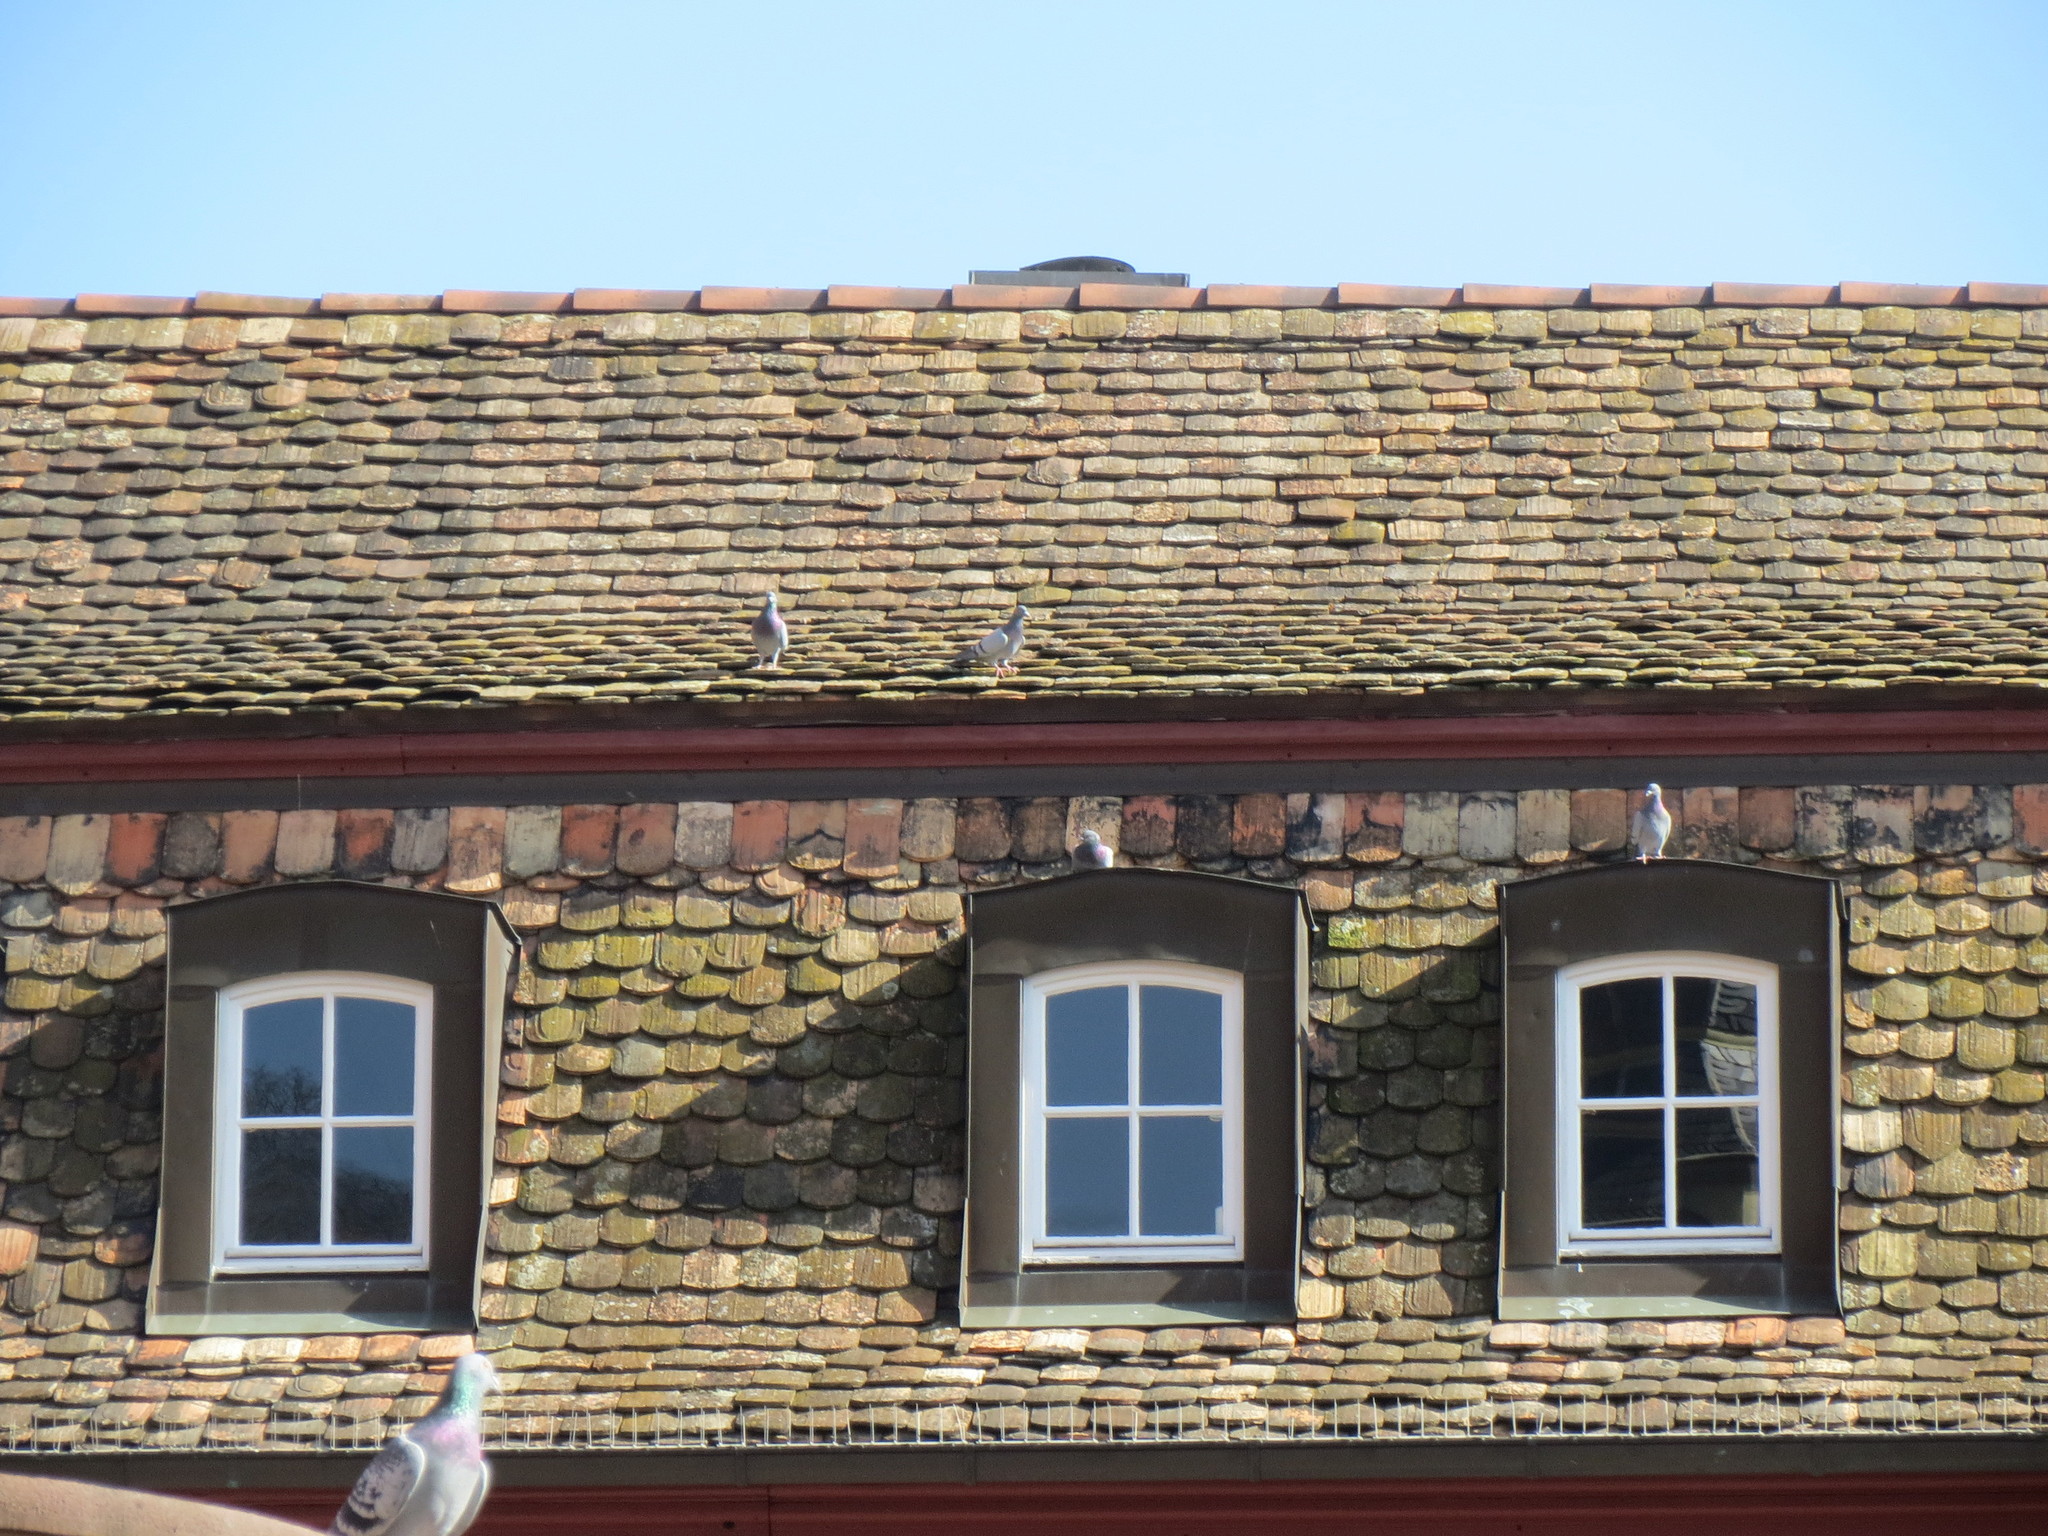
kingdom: Animalia
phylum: Chordata
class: Aves
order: Columbiformes
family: Columbidae
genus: Columba
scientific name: Columba livia
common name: Rock pigeon
